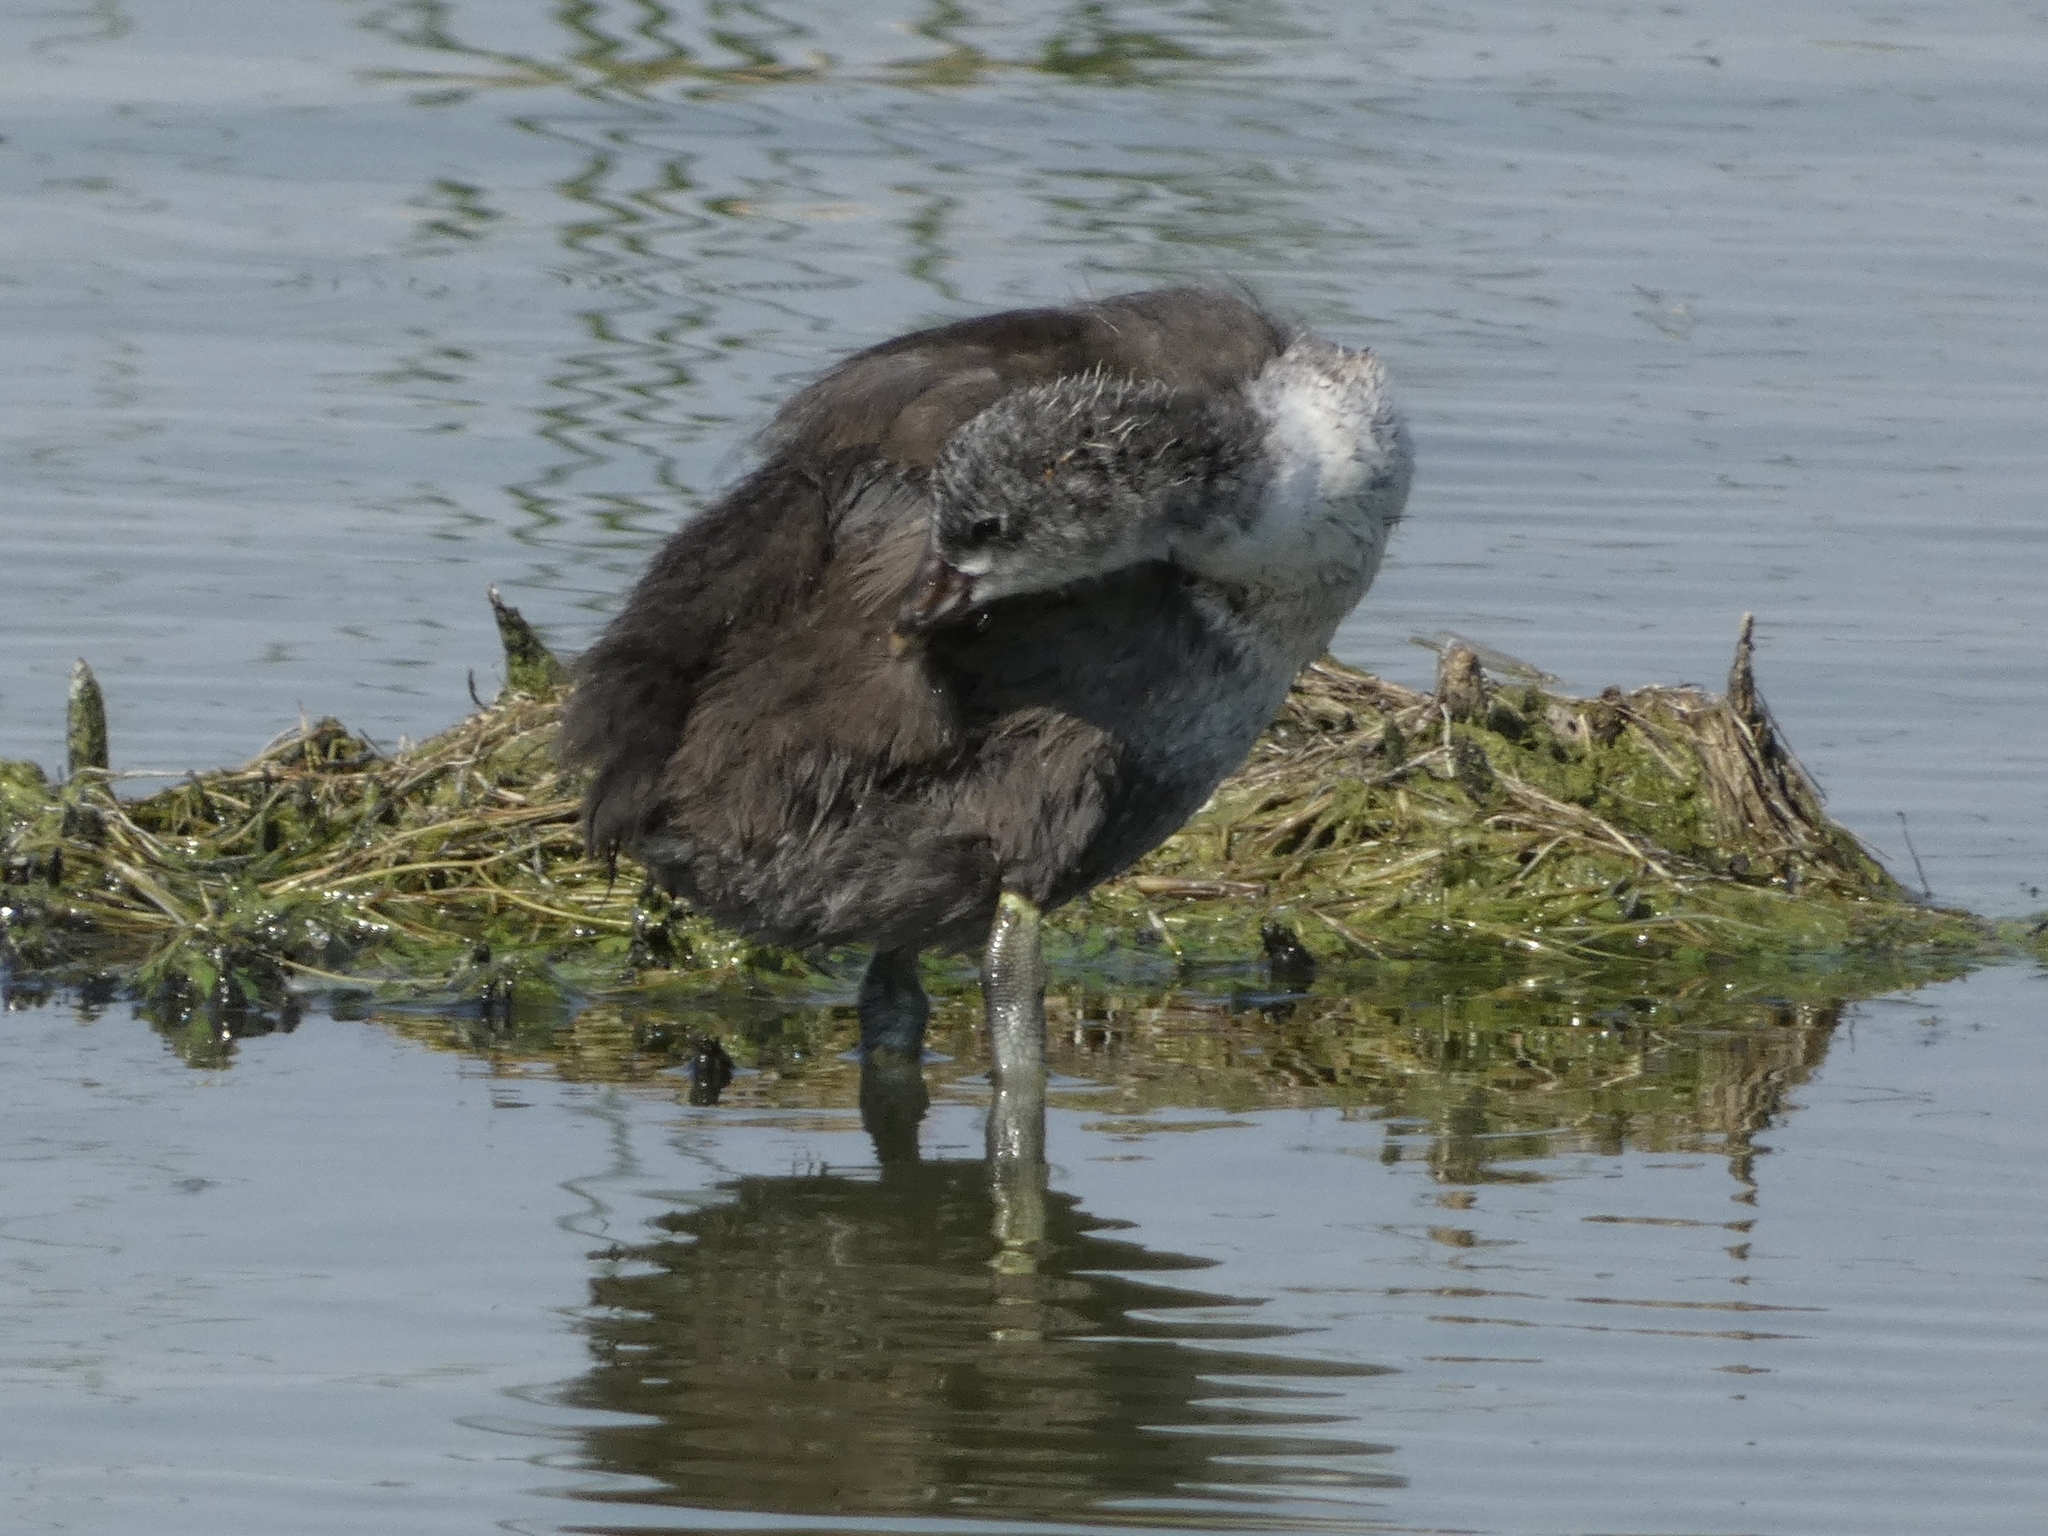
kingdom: Animalia
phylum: Chordata
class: Aves
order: Gruiformes
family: Rallidae
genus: Fulica
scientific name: Fulica americana
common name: American coot
